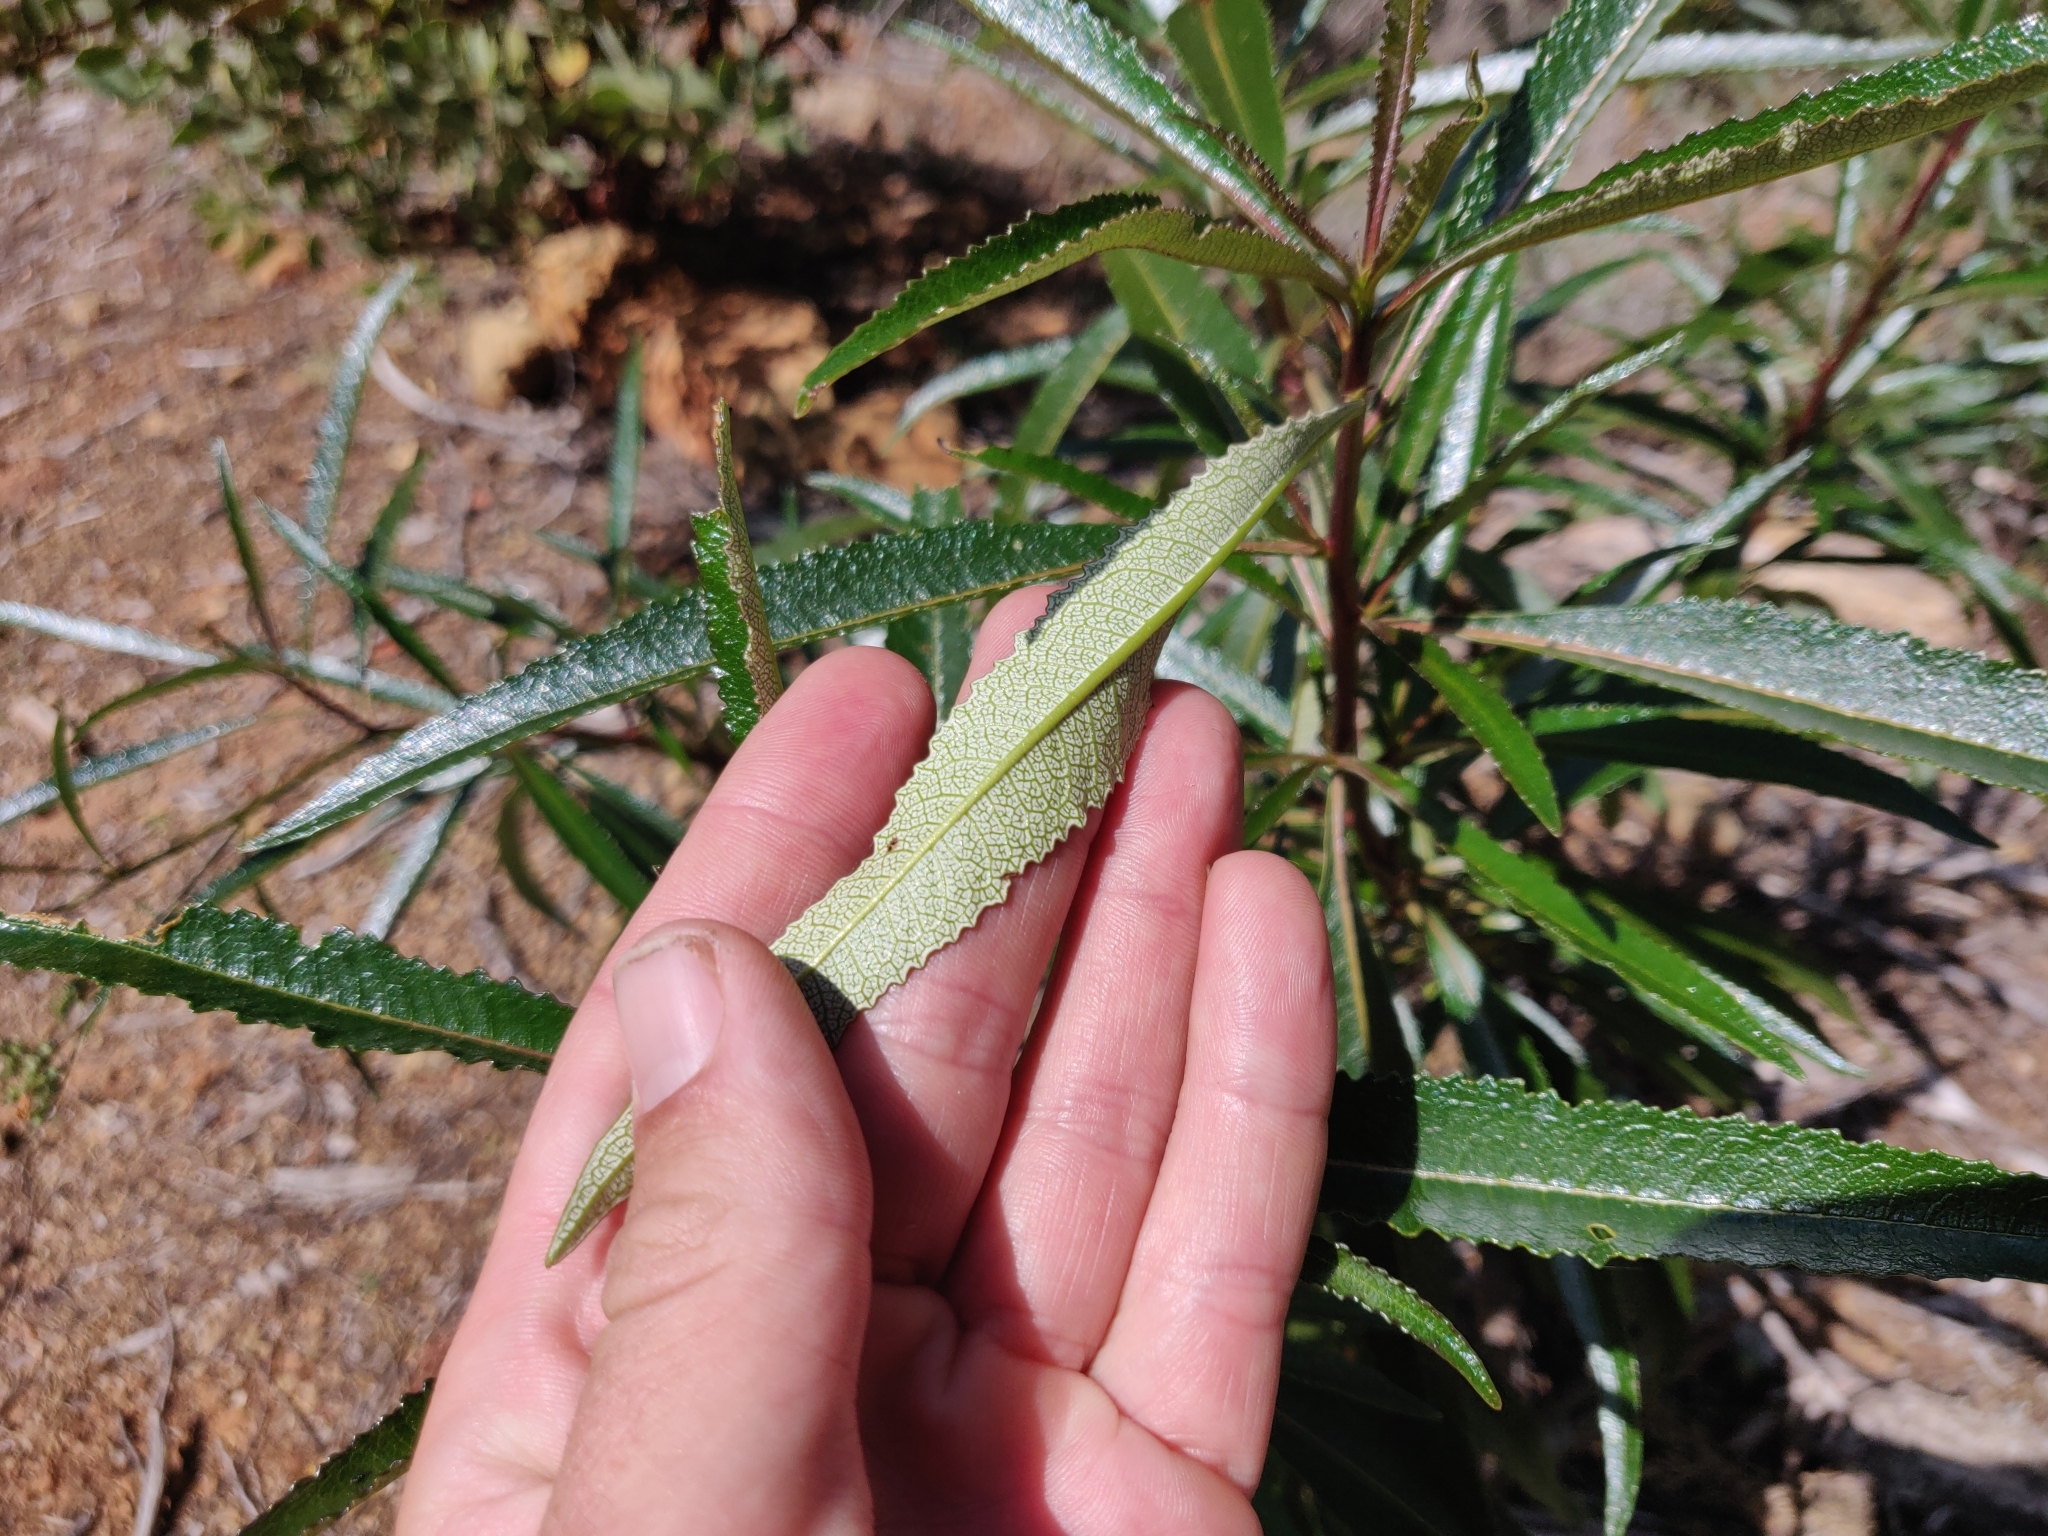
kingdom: Plantae
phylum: Tracheophyta
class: Magnoliopsida
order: Boraginales
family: Namaceae
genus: Eriodictyon
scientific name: Eriodictyon californicum
